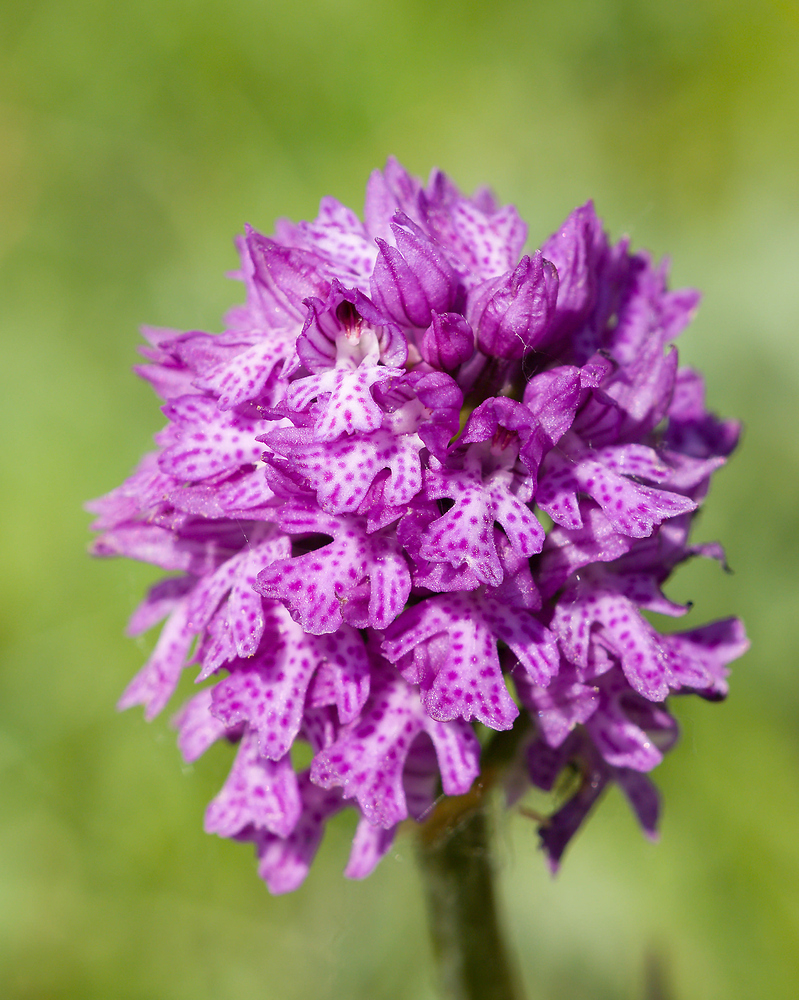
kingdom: Plantae
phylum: Tracheophyta
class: Liliopsida
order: Asparagales
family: Orchidaceae
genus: Neotinea
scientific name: Neotinea tridentata
